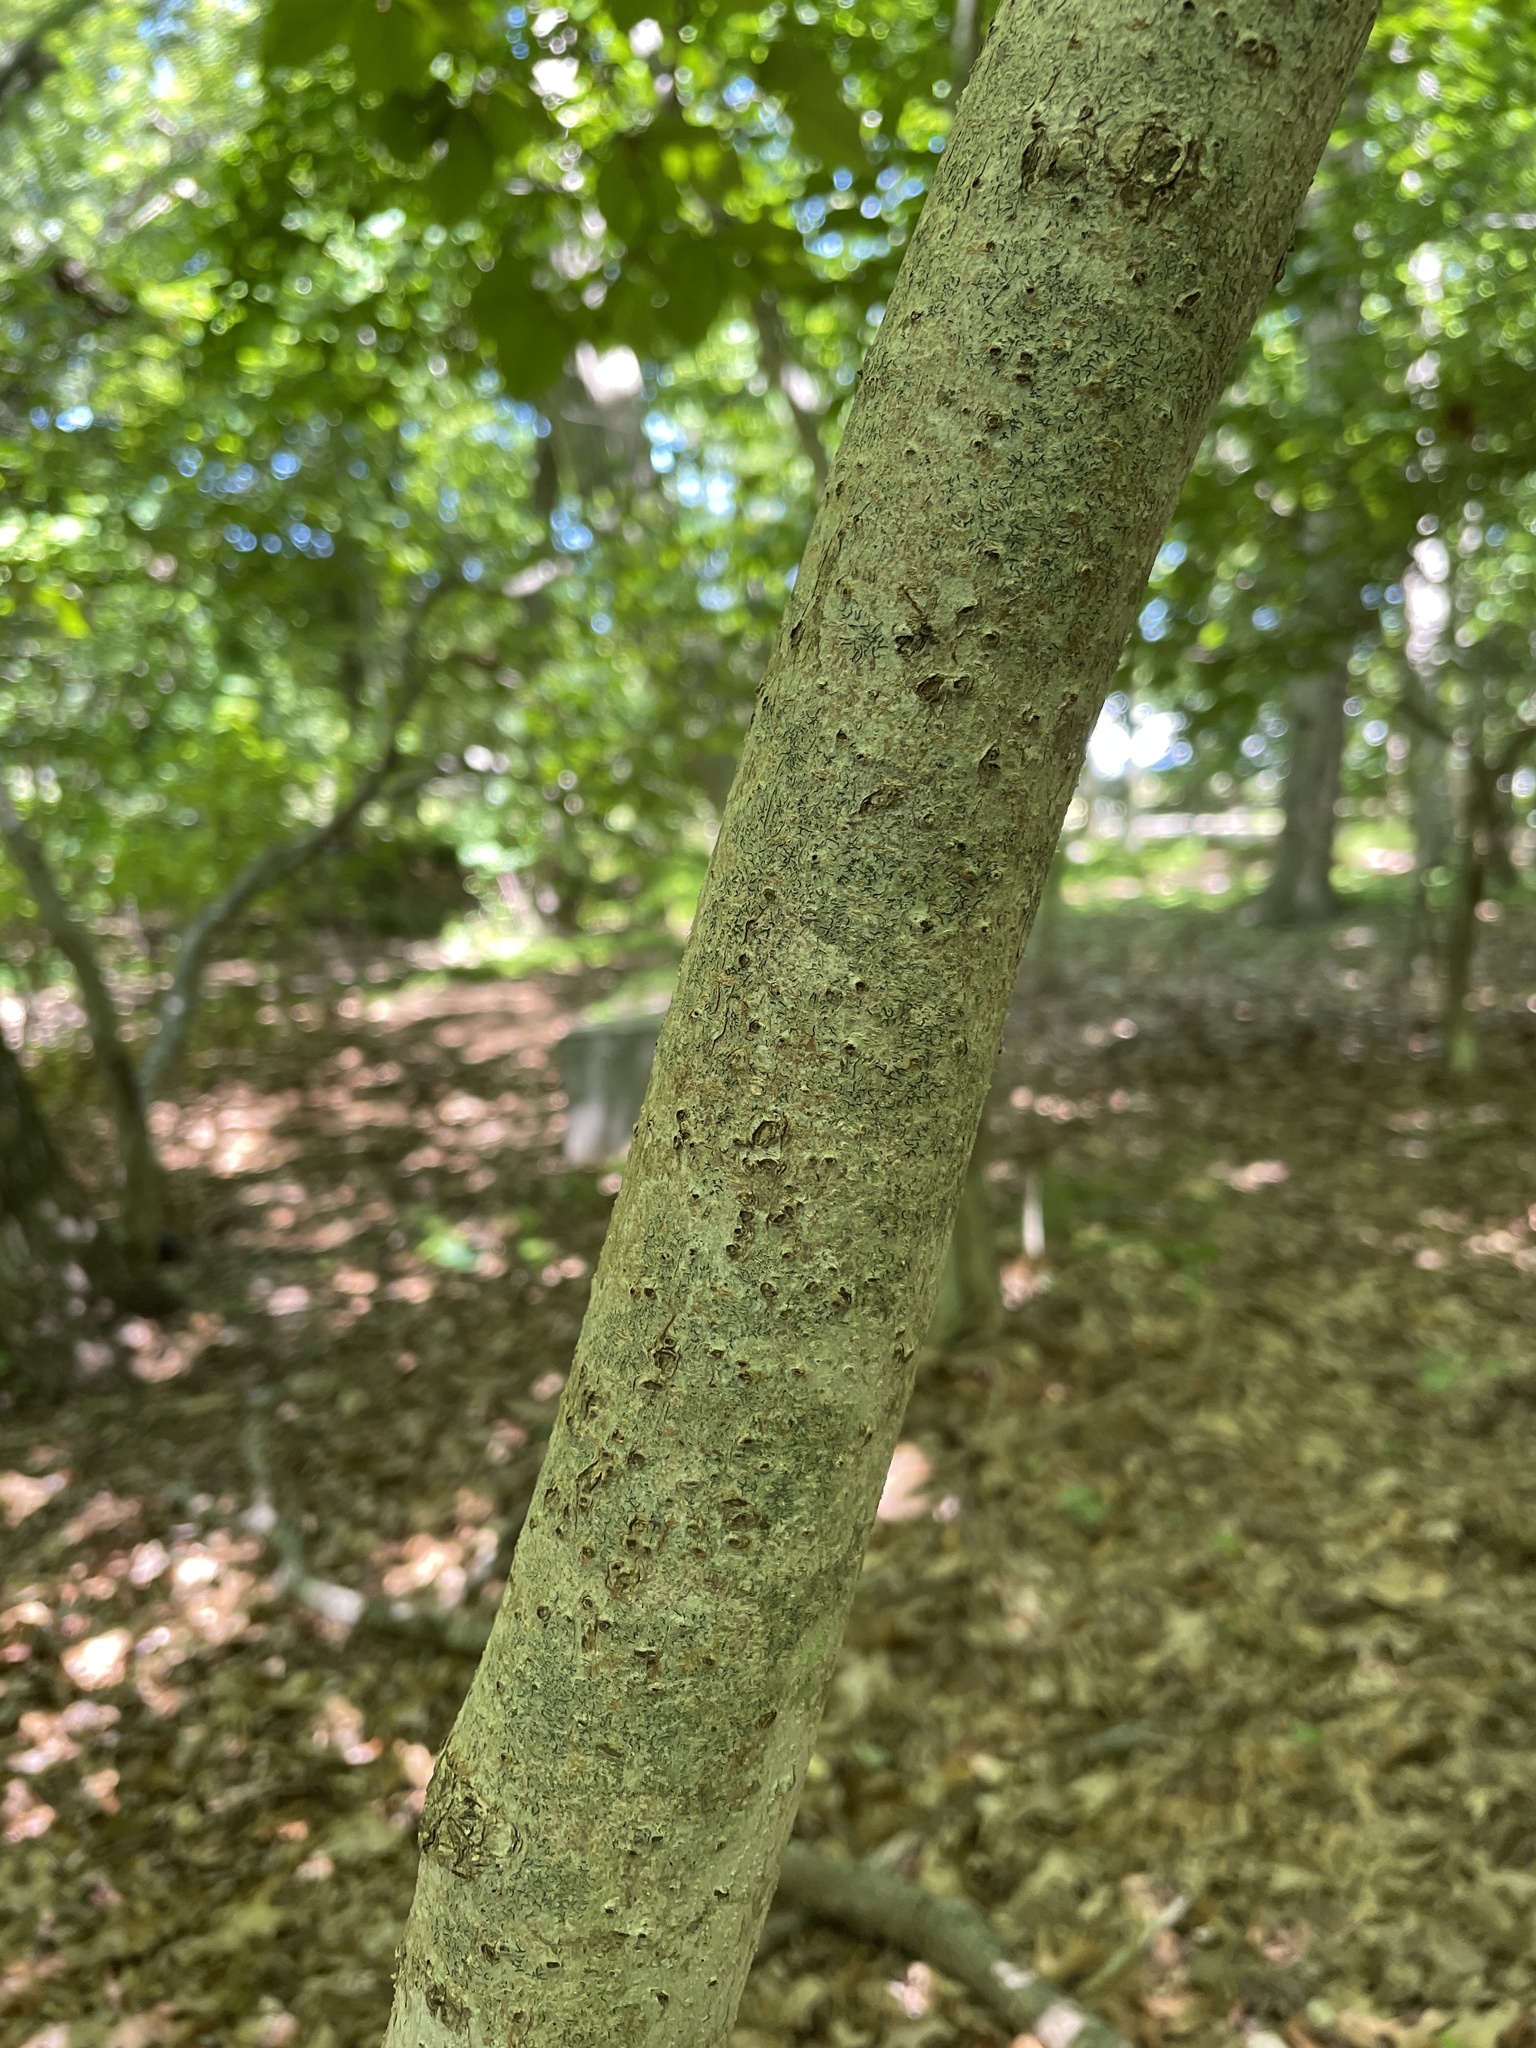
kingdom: Plantae
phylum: Tracheophyta
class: Magnoliopsida
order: Saxifragales
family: Hamamelidaceae
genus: Hamamelis
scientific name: Hamamelis virginiana
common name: Witch-hazel
